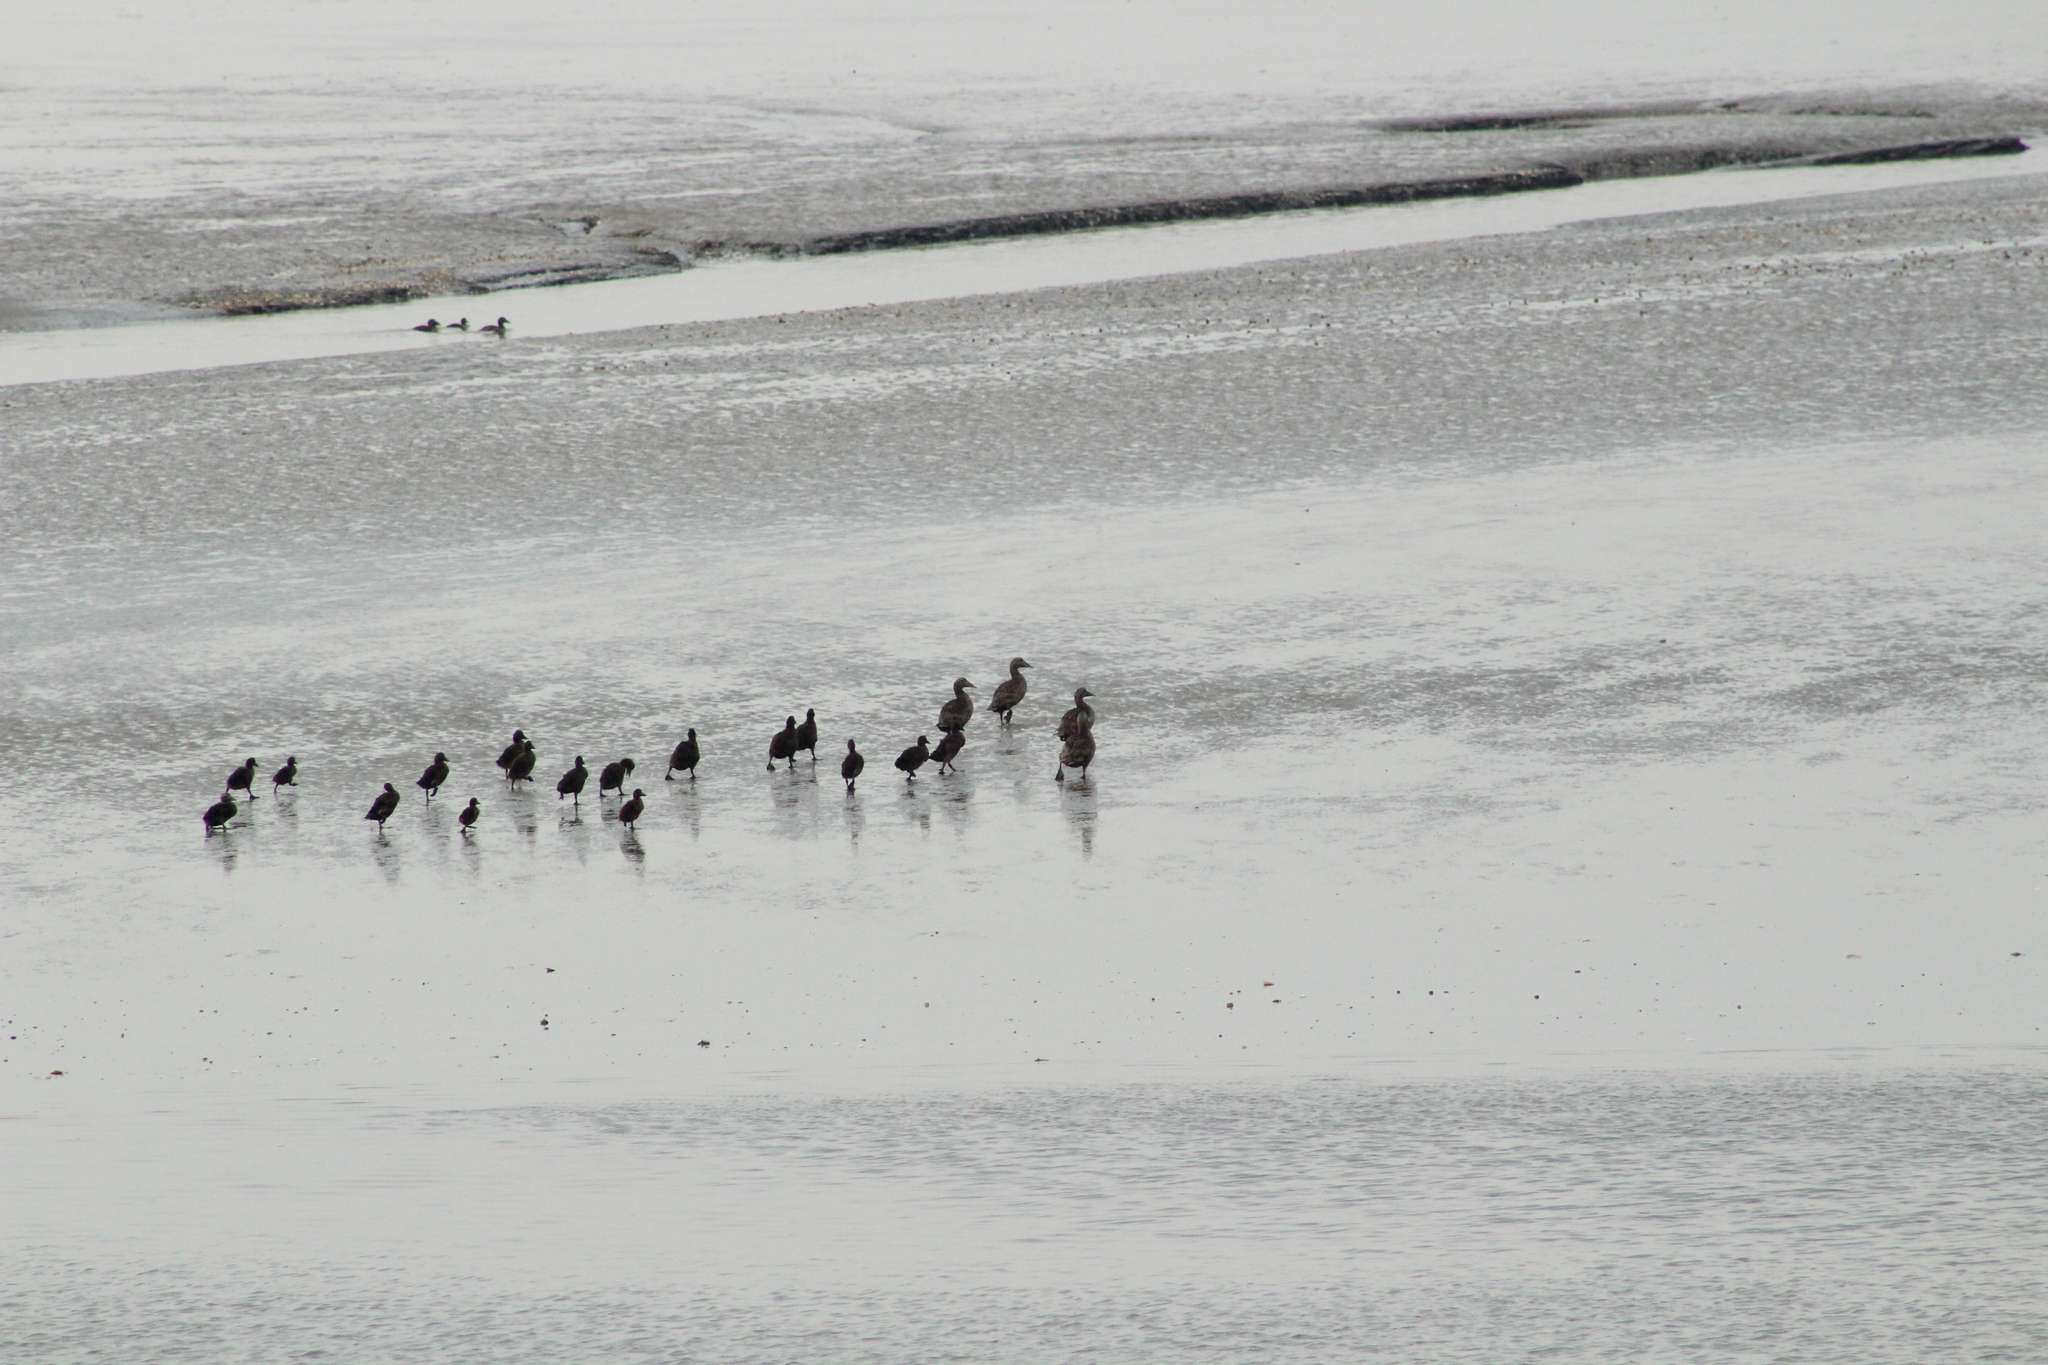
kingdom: Animalia
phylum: Chordata
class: Aves
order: Anseriformes
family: Anatidae
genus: Somateria
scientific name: Somateria mollissima
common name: Common eider
